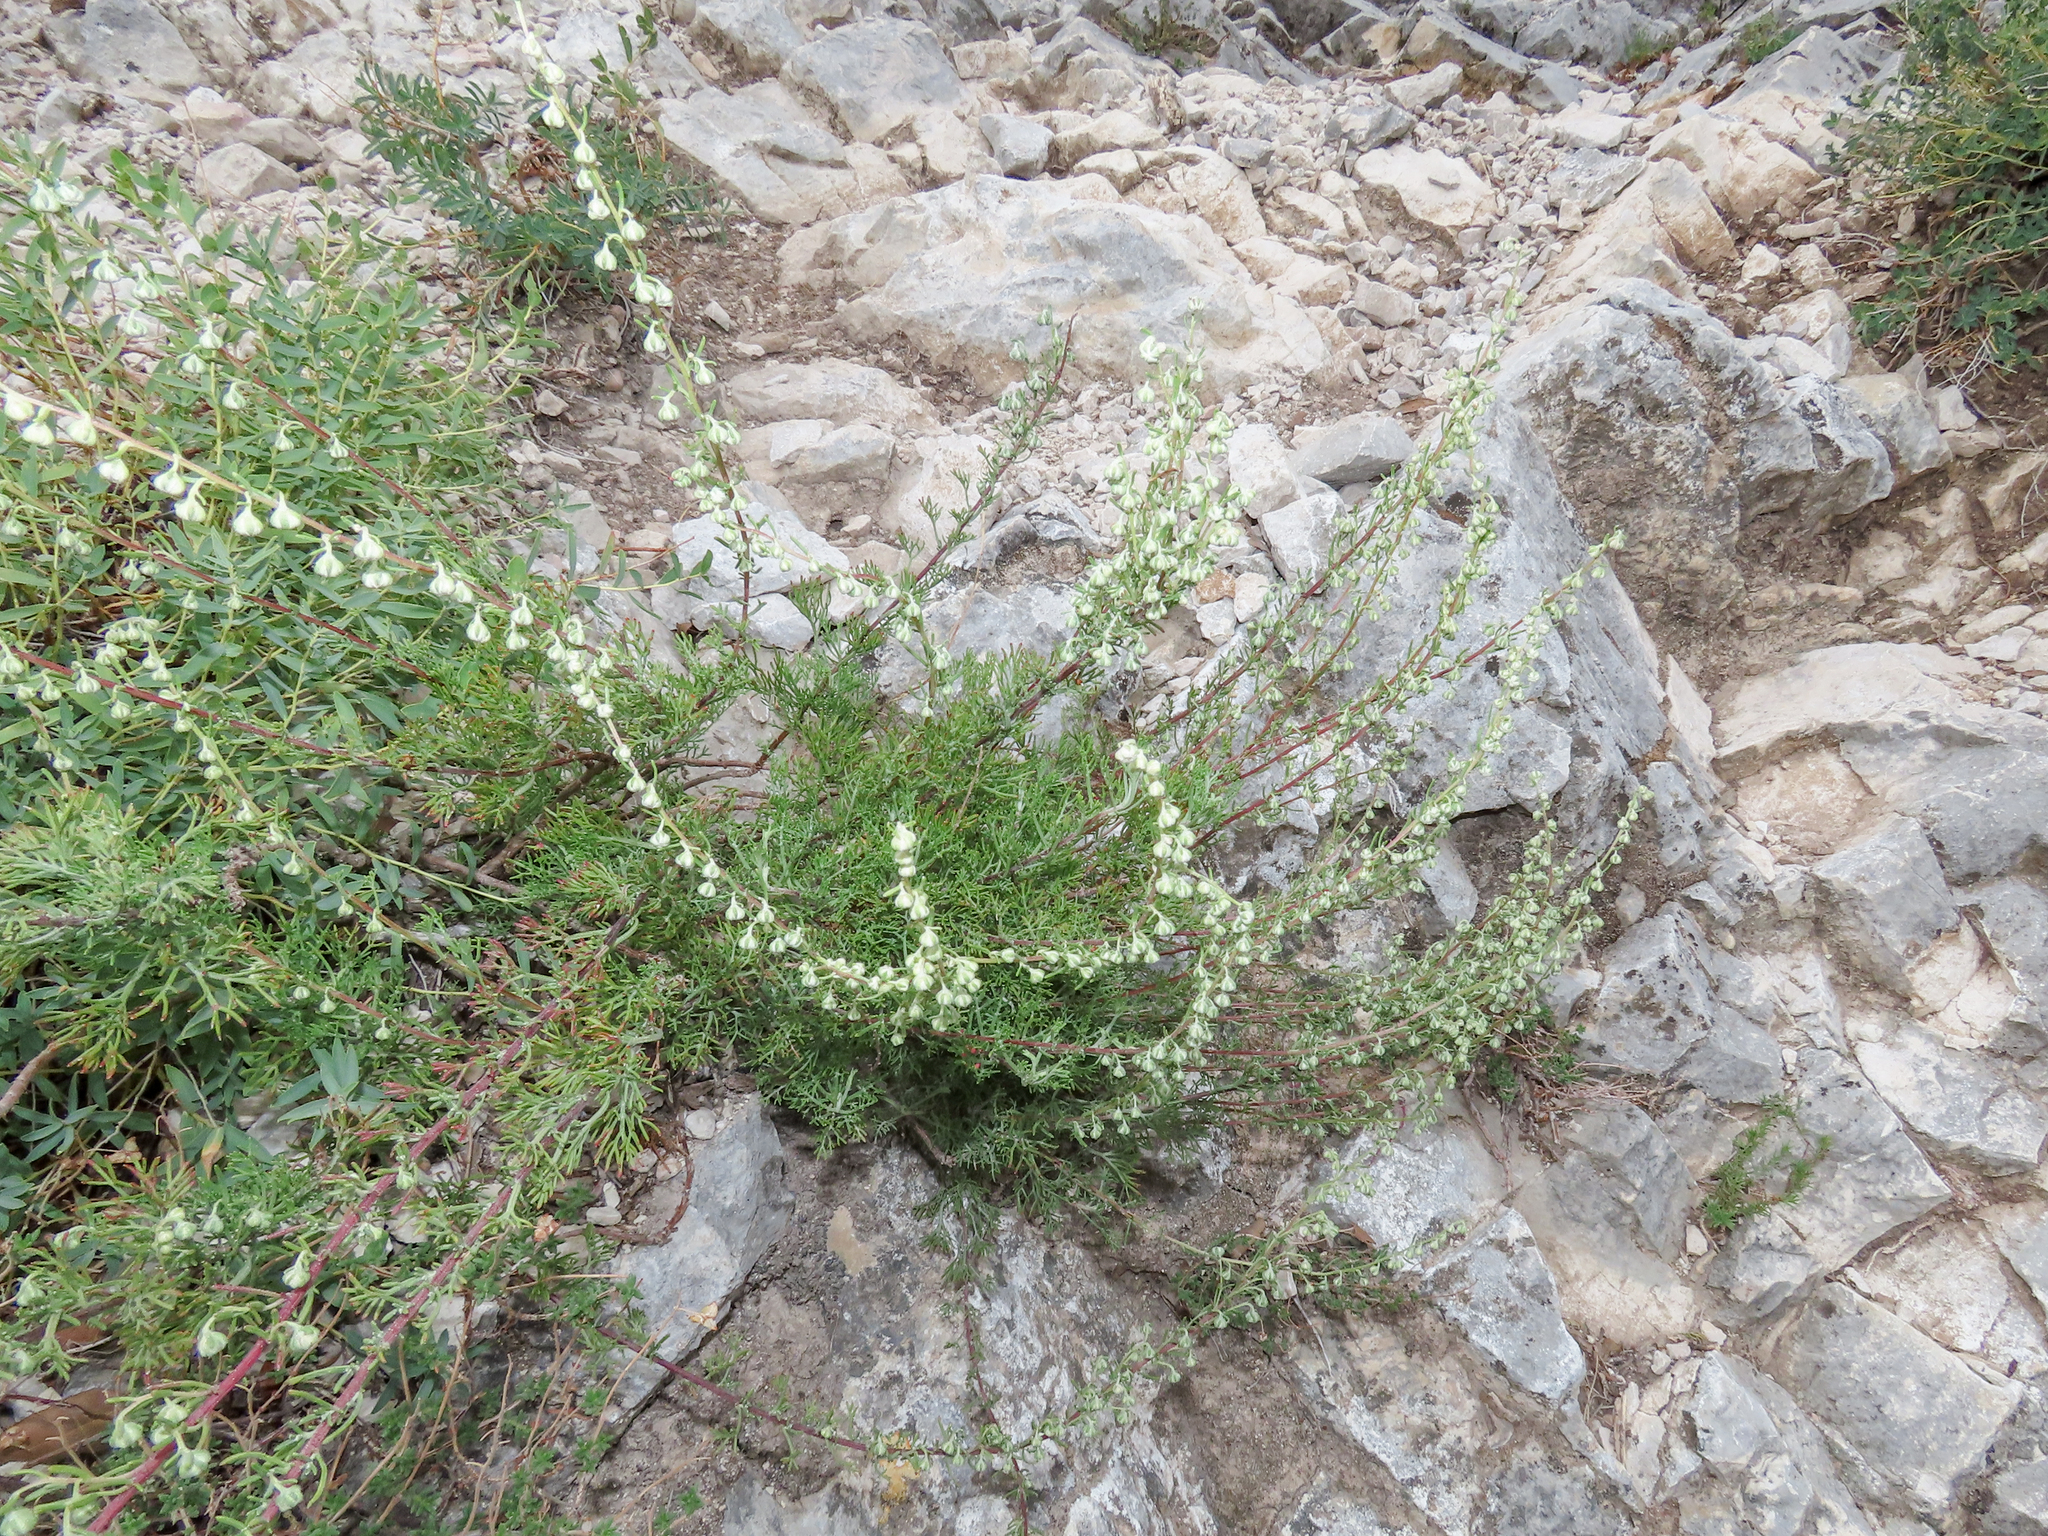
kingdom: Plantae
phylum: Tracheophyta
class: Magnoliopsida
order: Asterales
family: Asteraceae
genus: Artemisia
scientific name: Artemisia campestris
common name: Field wormwood
